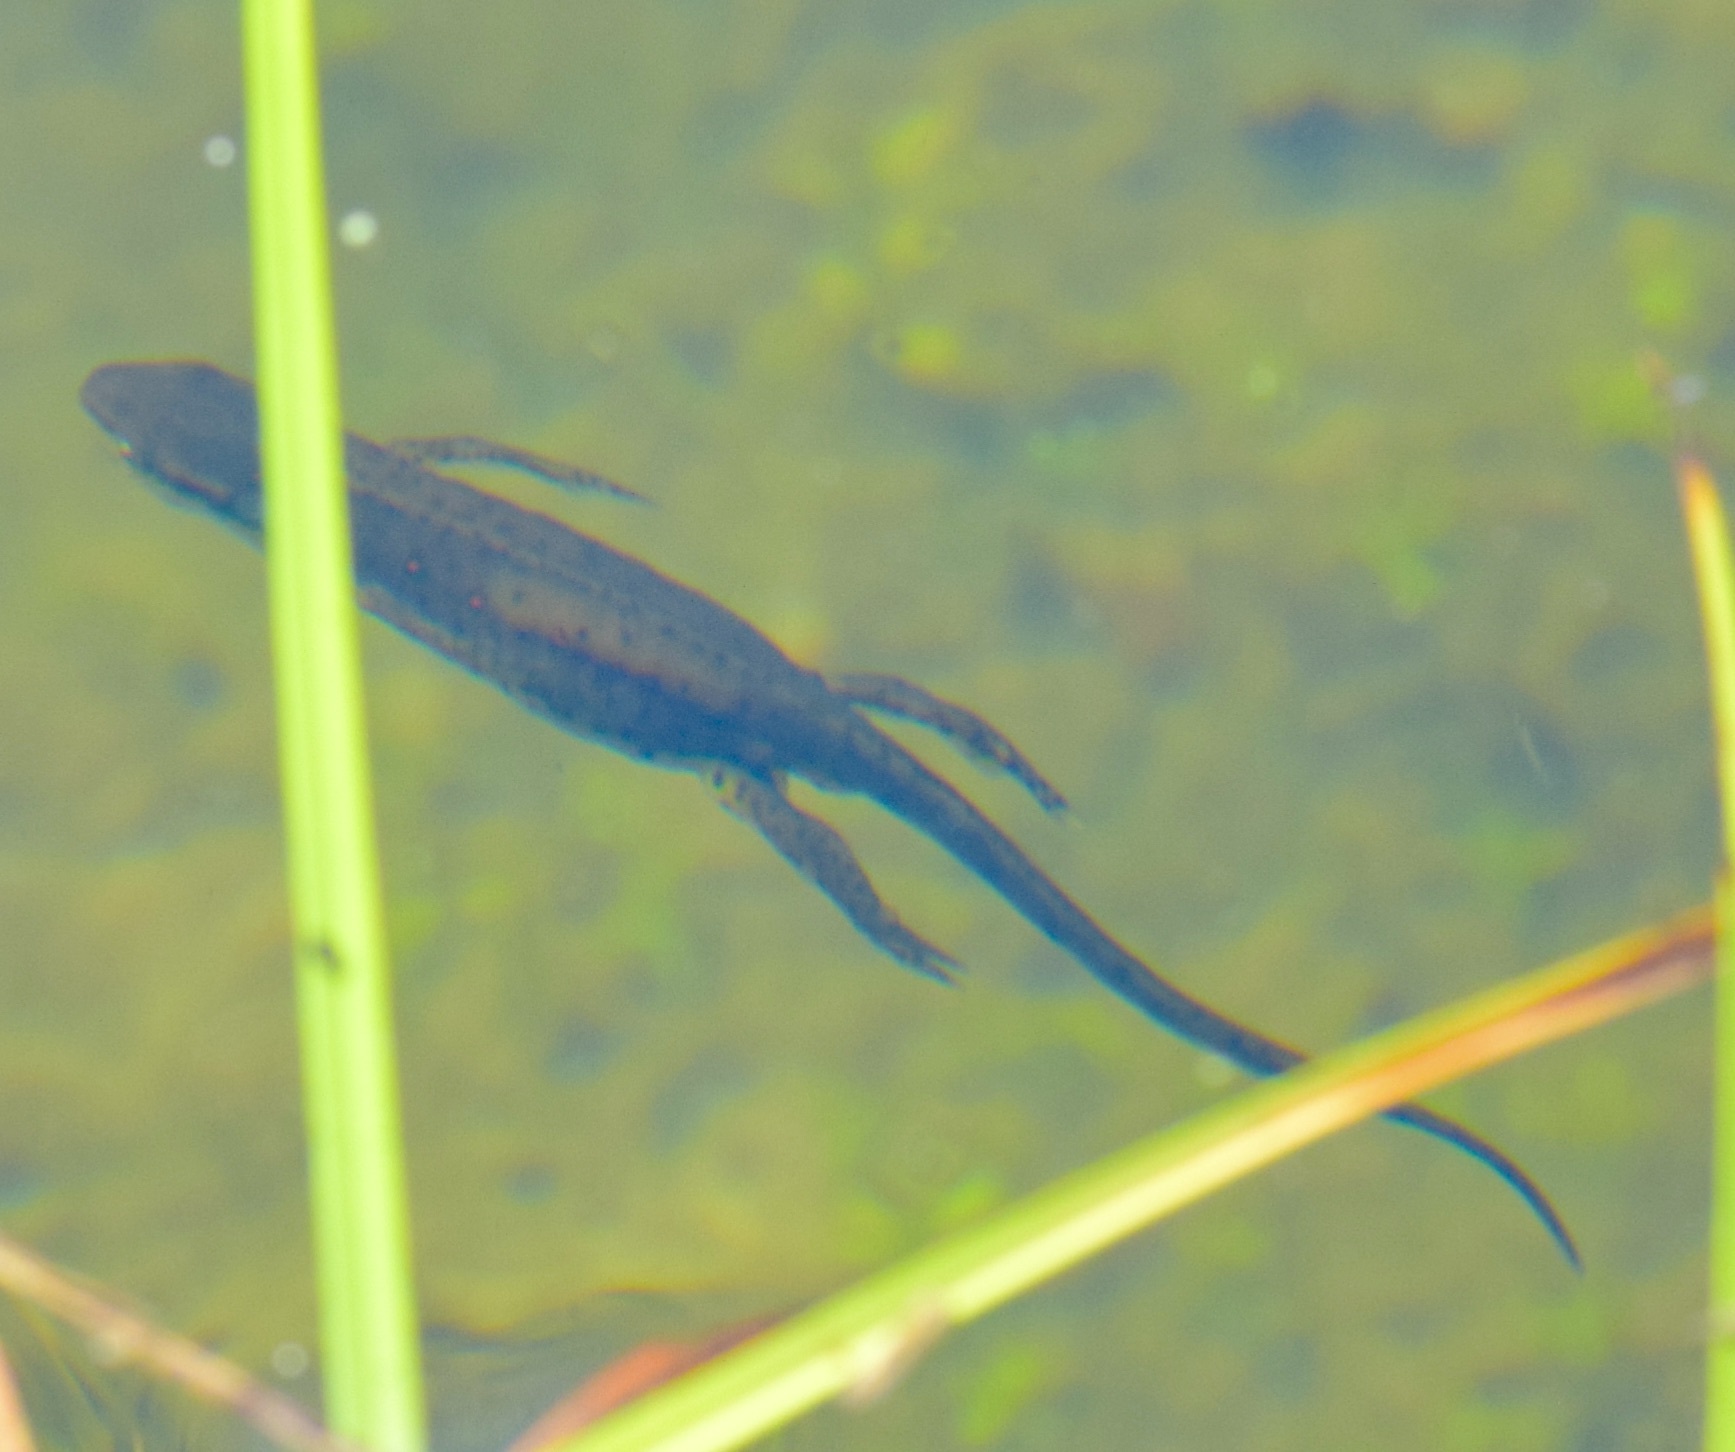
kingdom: Animalia
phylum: Chordata
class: Amphibia
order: Caudata
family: Salamandridae
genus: Notophthalmus
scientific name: Notophthalmus viridescens
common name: Eastern newt
